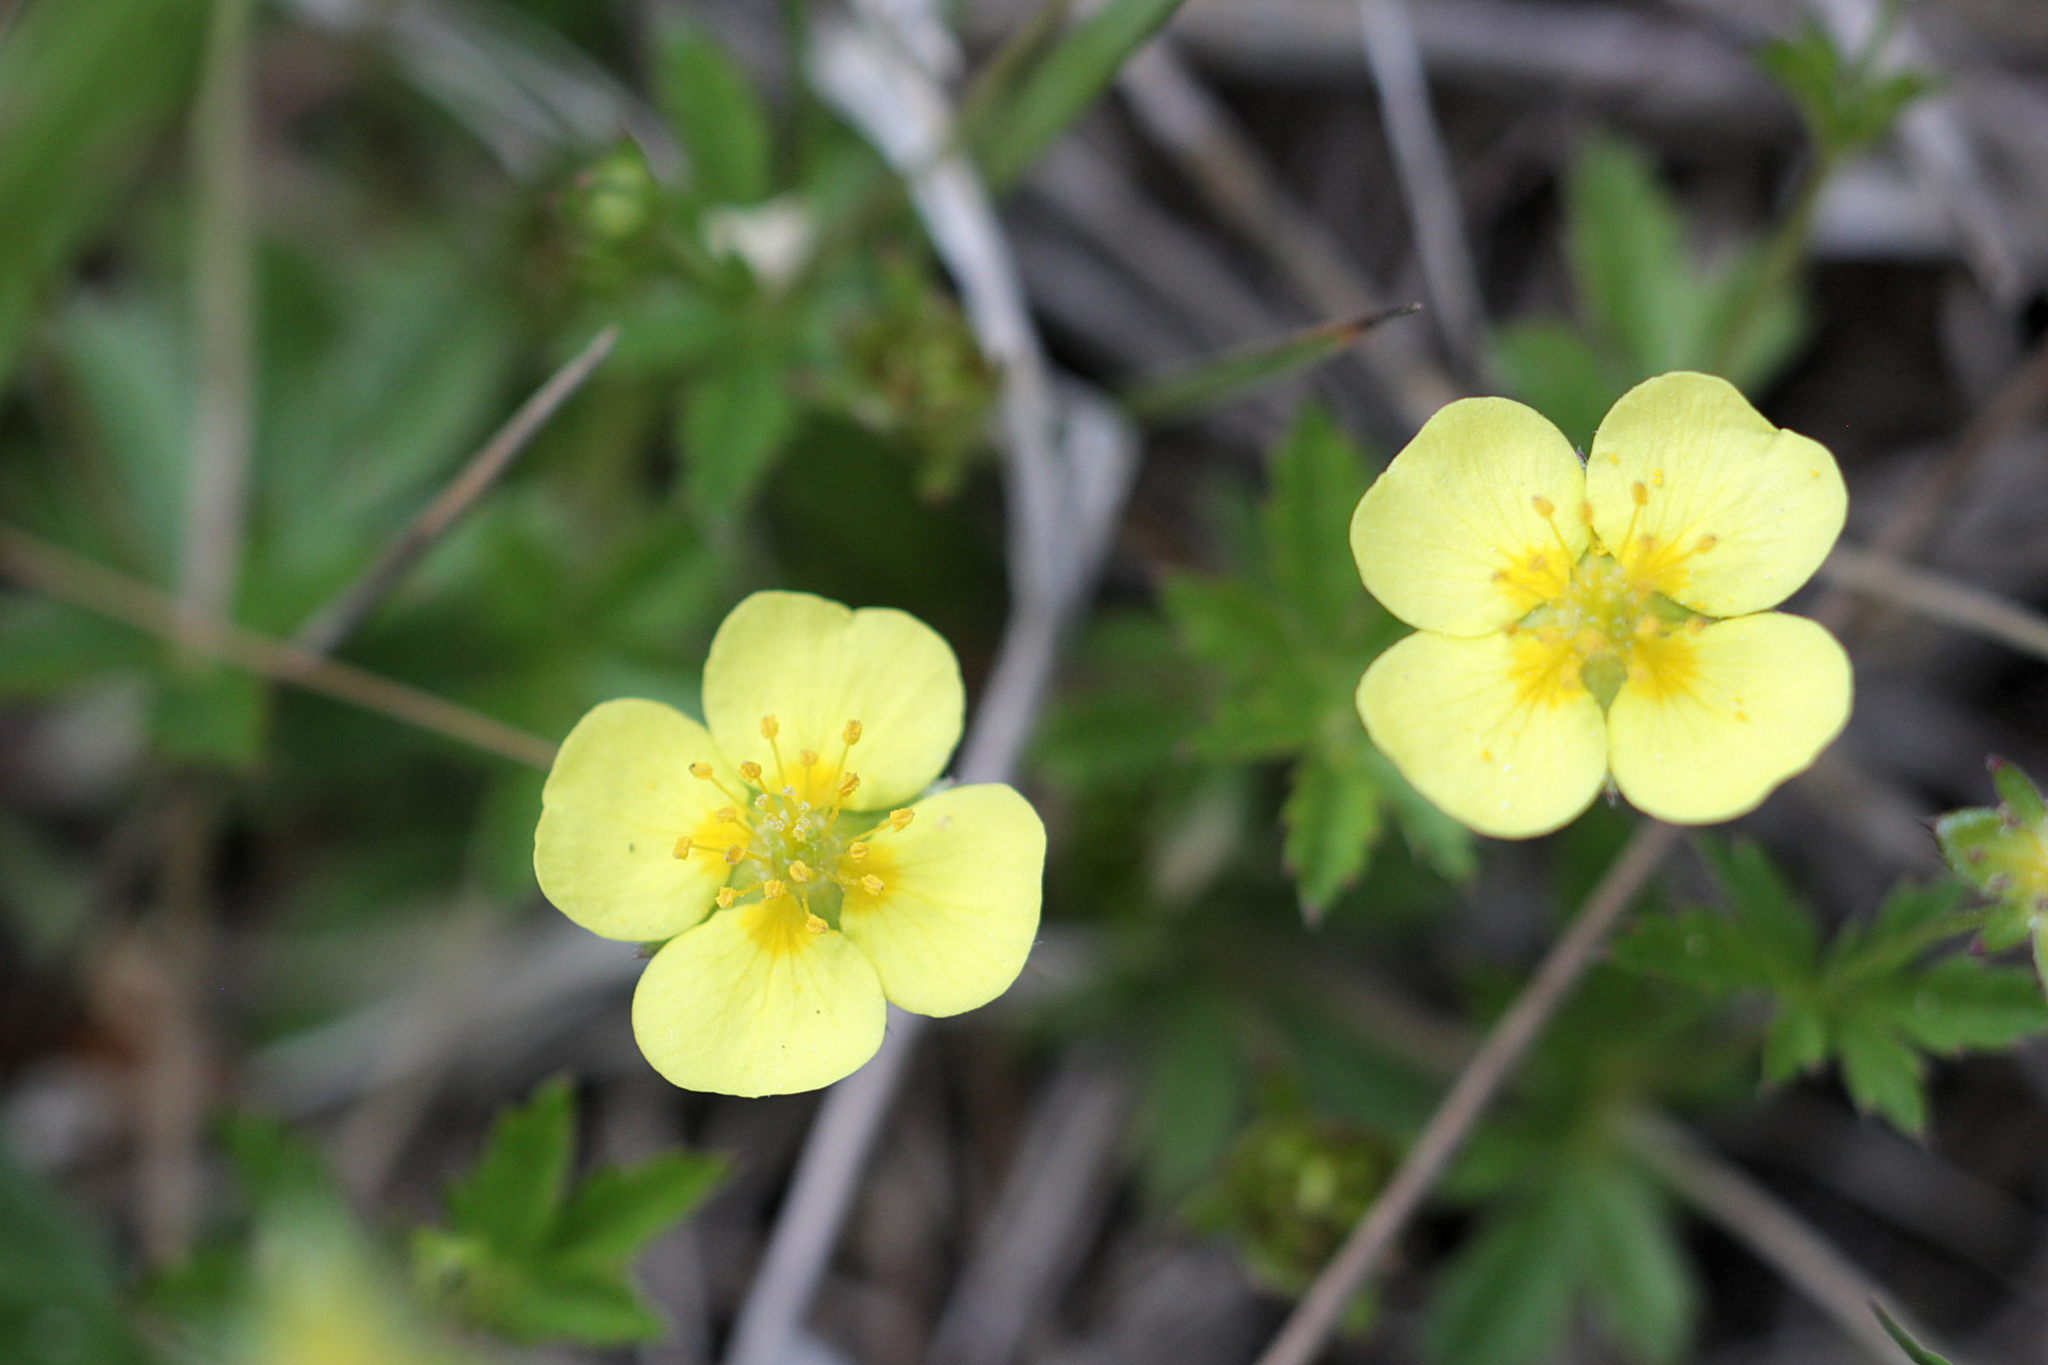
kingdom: Plantae
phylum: Tracheophyta
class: Magnoliopsida
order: Rosales
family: Rosaceae
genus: Potentilla
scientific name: Potentilla erecta
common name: Tormentil
